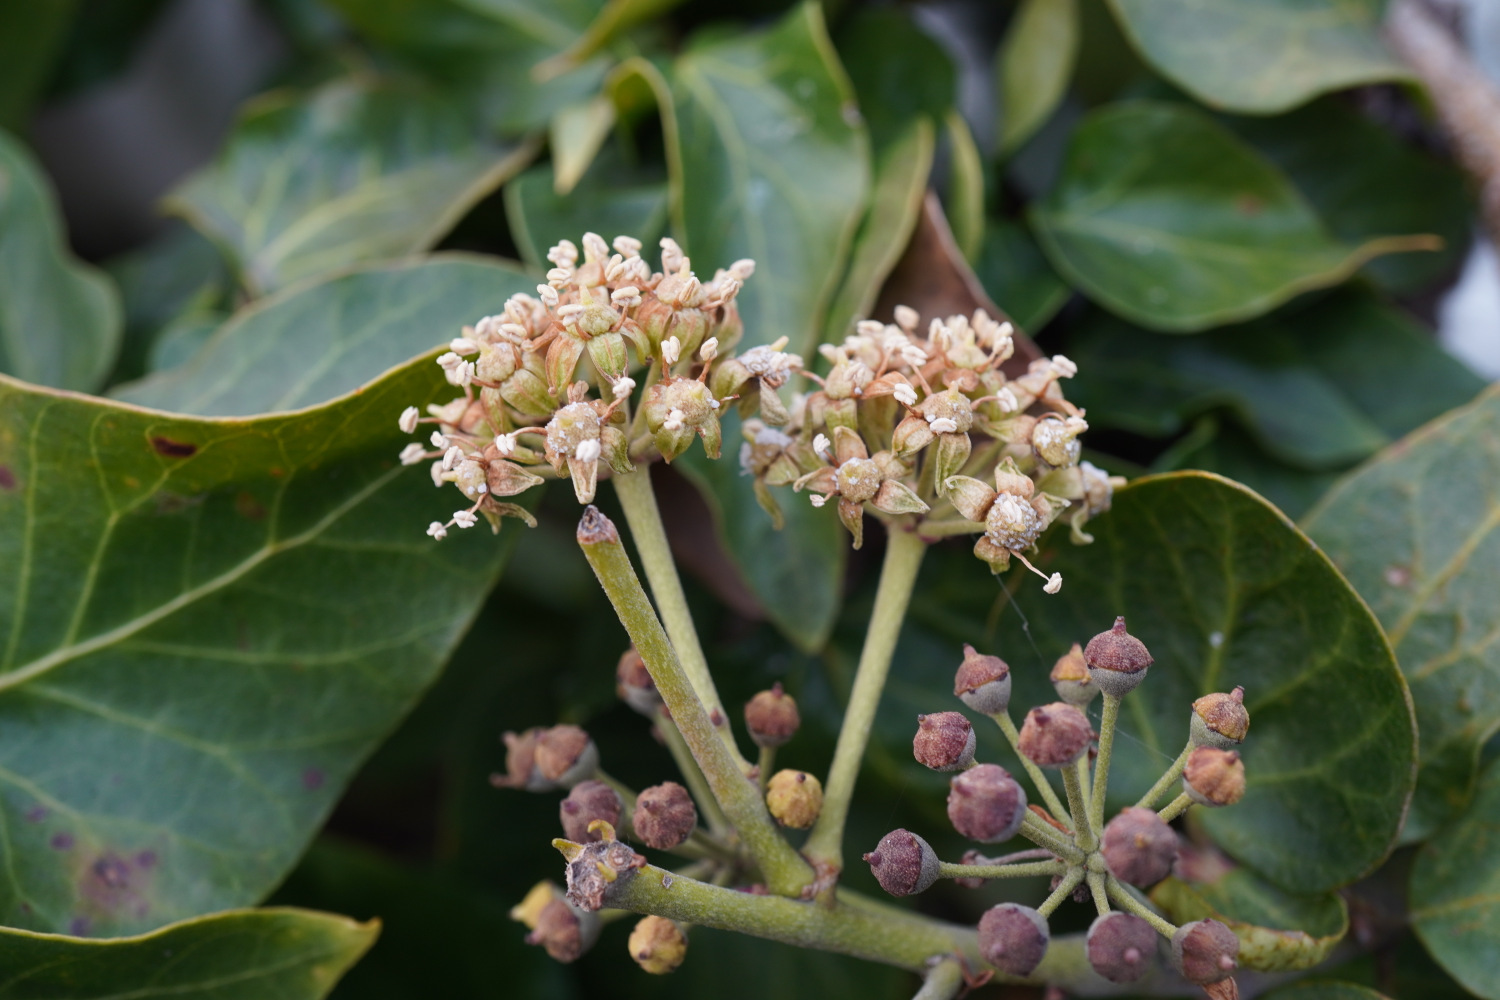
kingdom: Plantae
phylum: Tracheophyta
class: Magnoliopsida
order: Apiales
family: Araliaceae
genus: Hedera
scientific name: Hedera rhombea
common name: Japanese ivy
